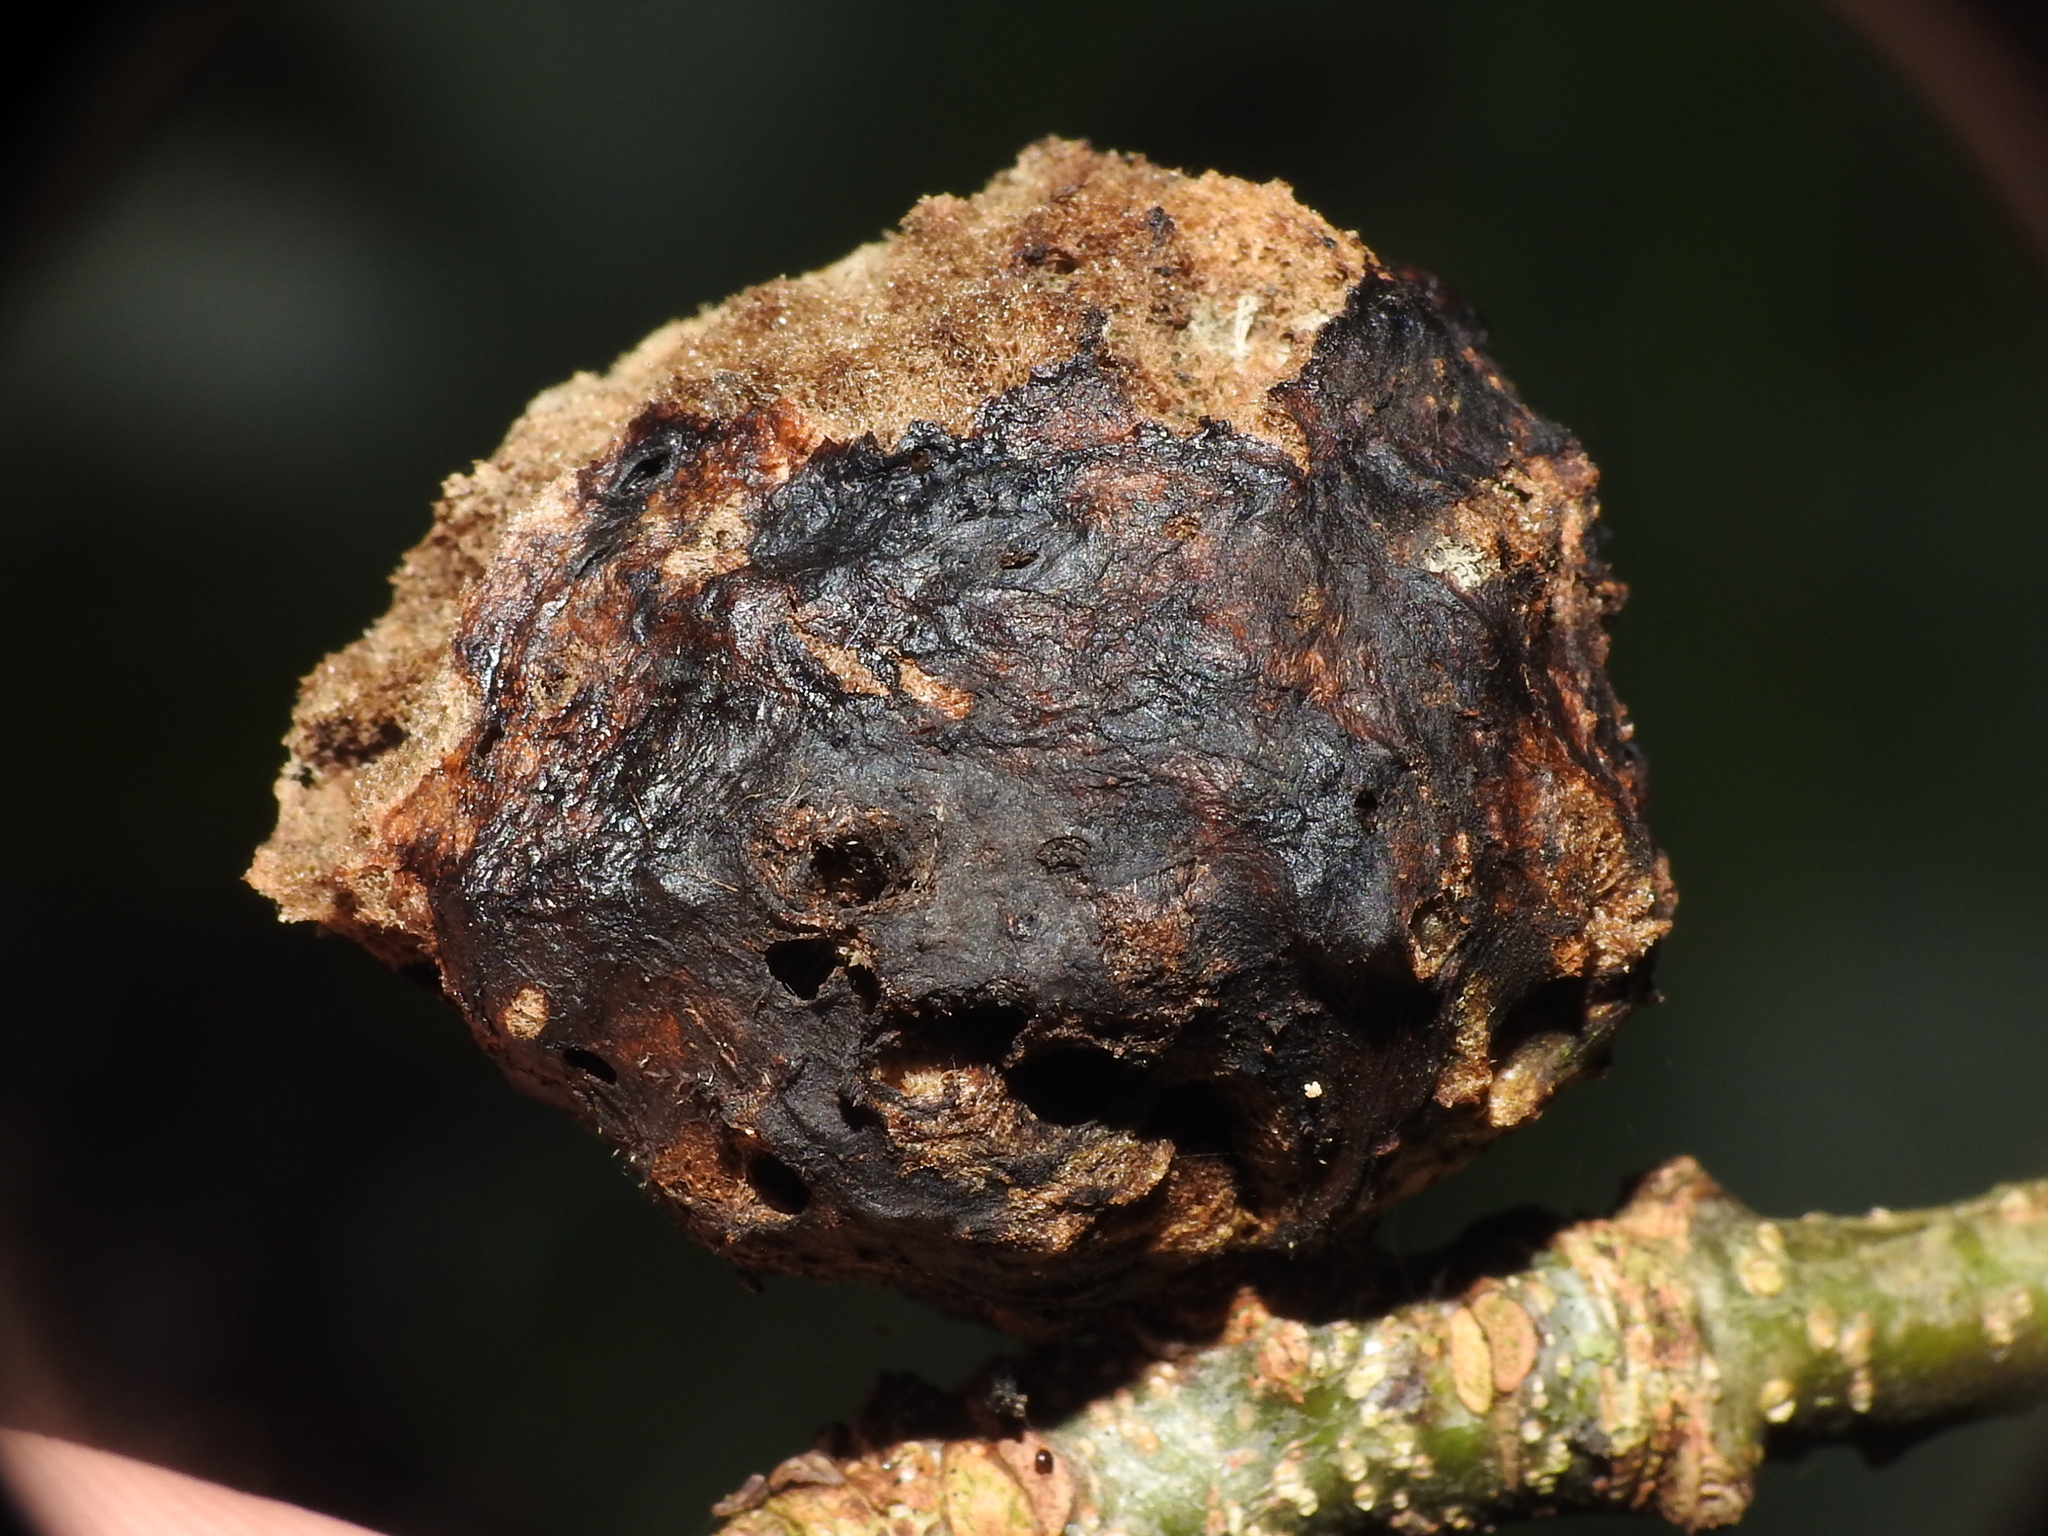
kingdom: Animalia
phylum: Arthropoda
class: Insecta
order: Hymenoptera
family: Cynipidae
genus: Biorhiza
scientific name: Biorhiza pallida
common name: Oak apple
